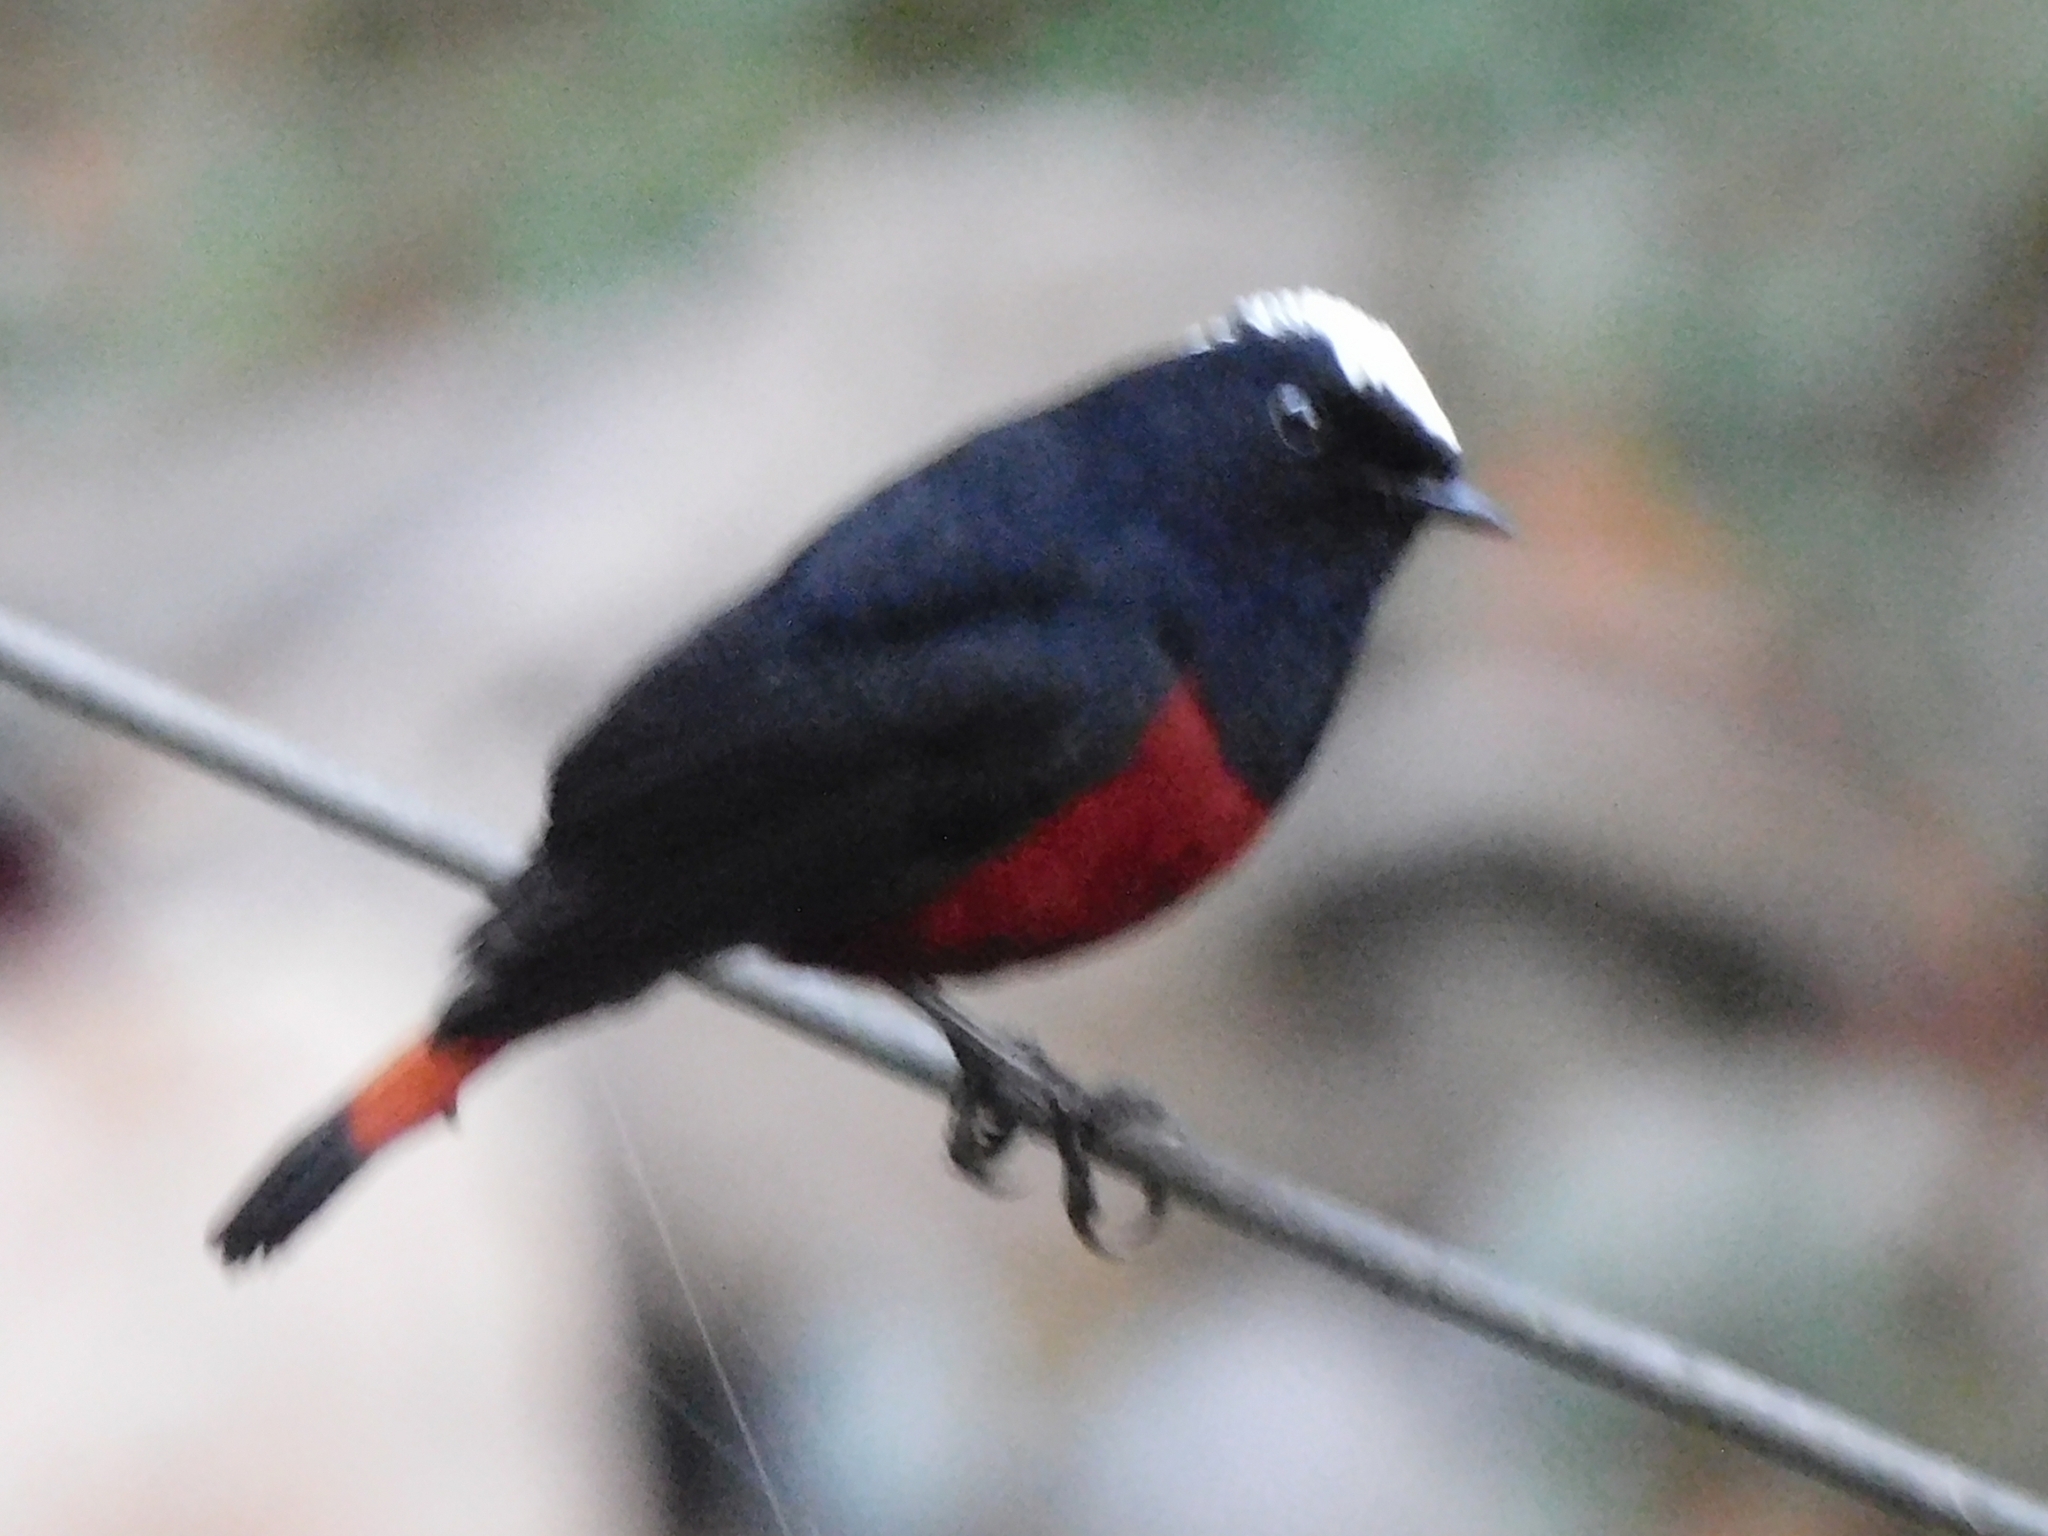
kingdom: Animalia
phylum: Chordata
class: Aves
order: Passeriformes
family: Muscicapidae
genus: Chaimarrornis
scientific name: Chaimarrornis leucocephalus
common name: White-capped redstart
